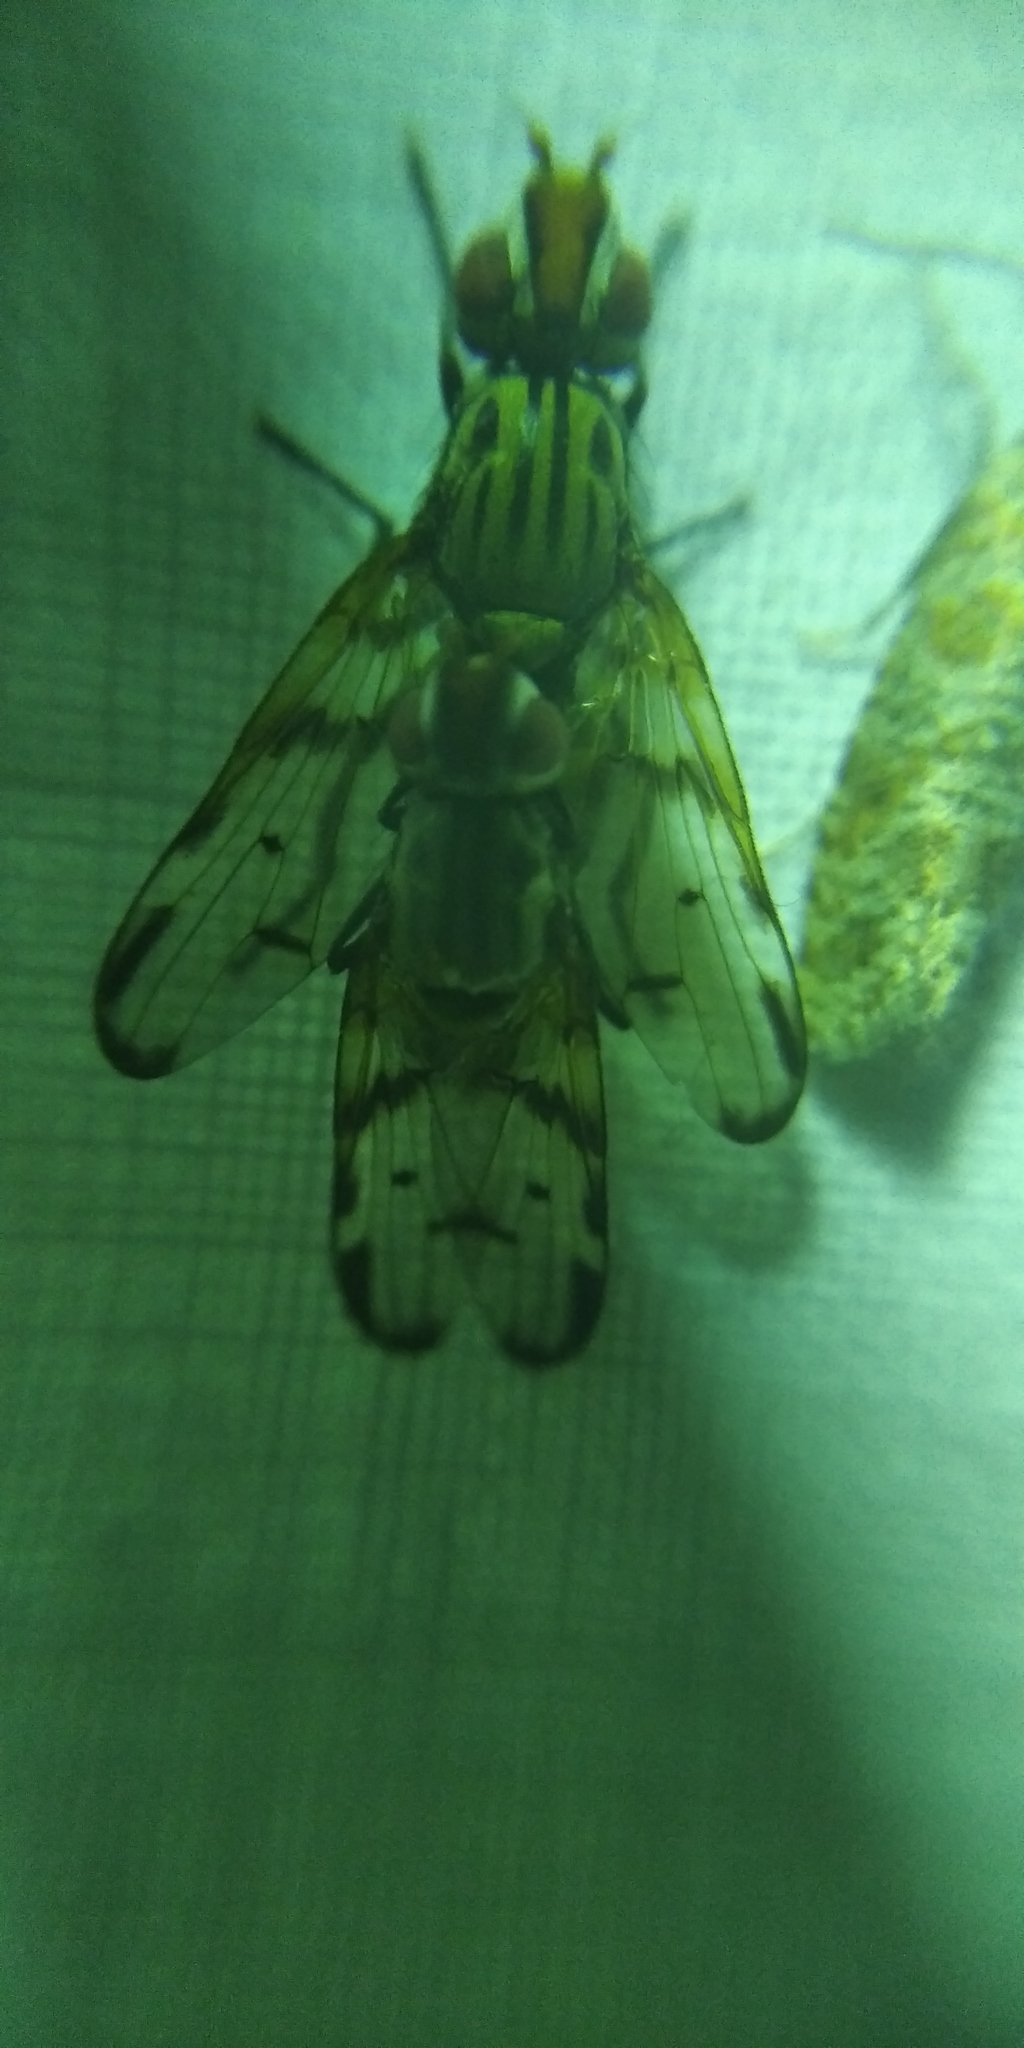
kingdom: Animalia
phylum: Arthropoda
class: Insecta
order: Diptera
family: Ulidiidae
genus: Otites
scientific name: Otites formosa
